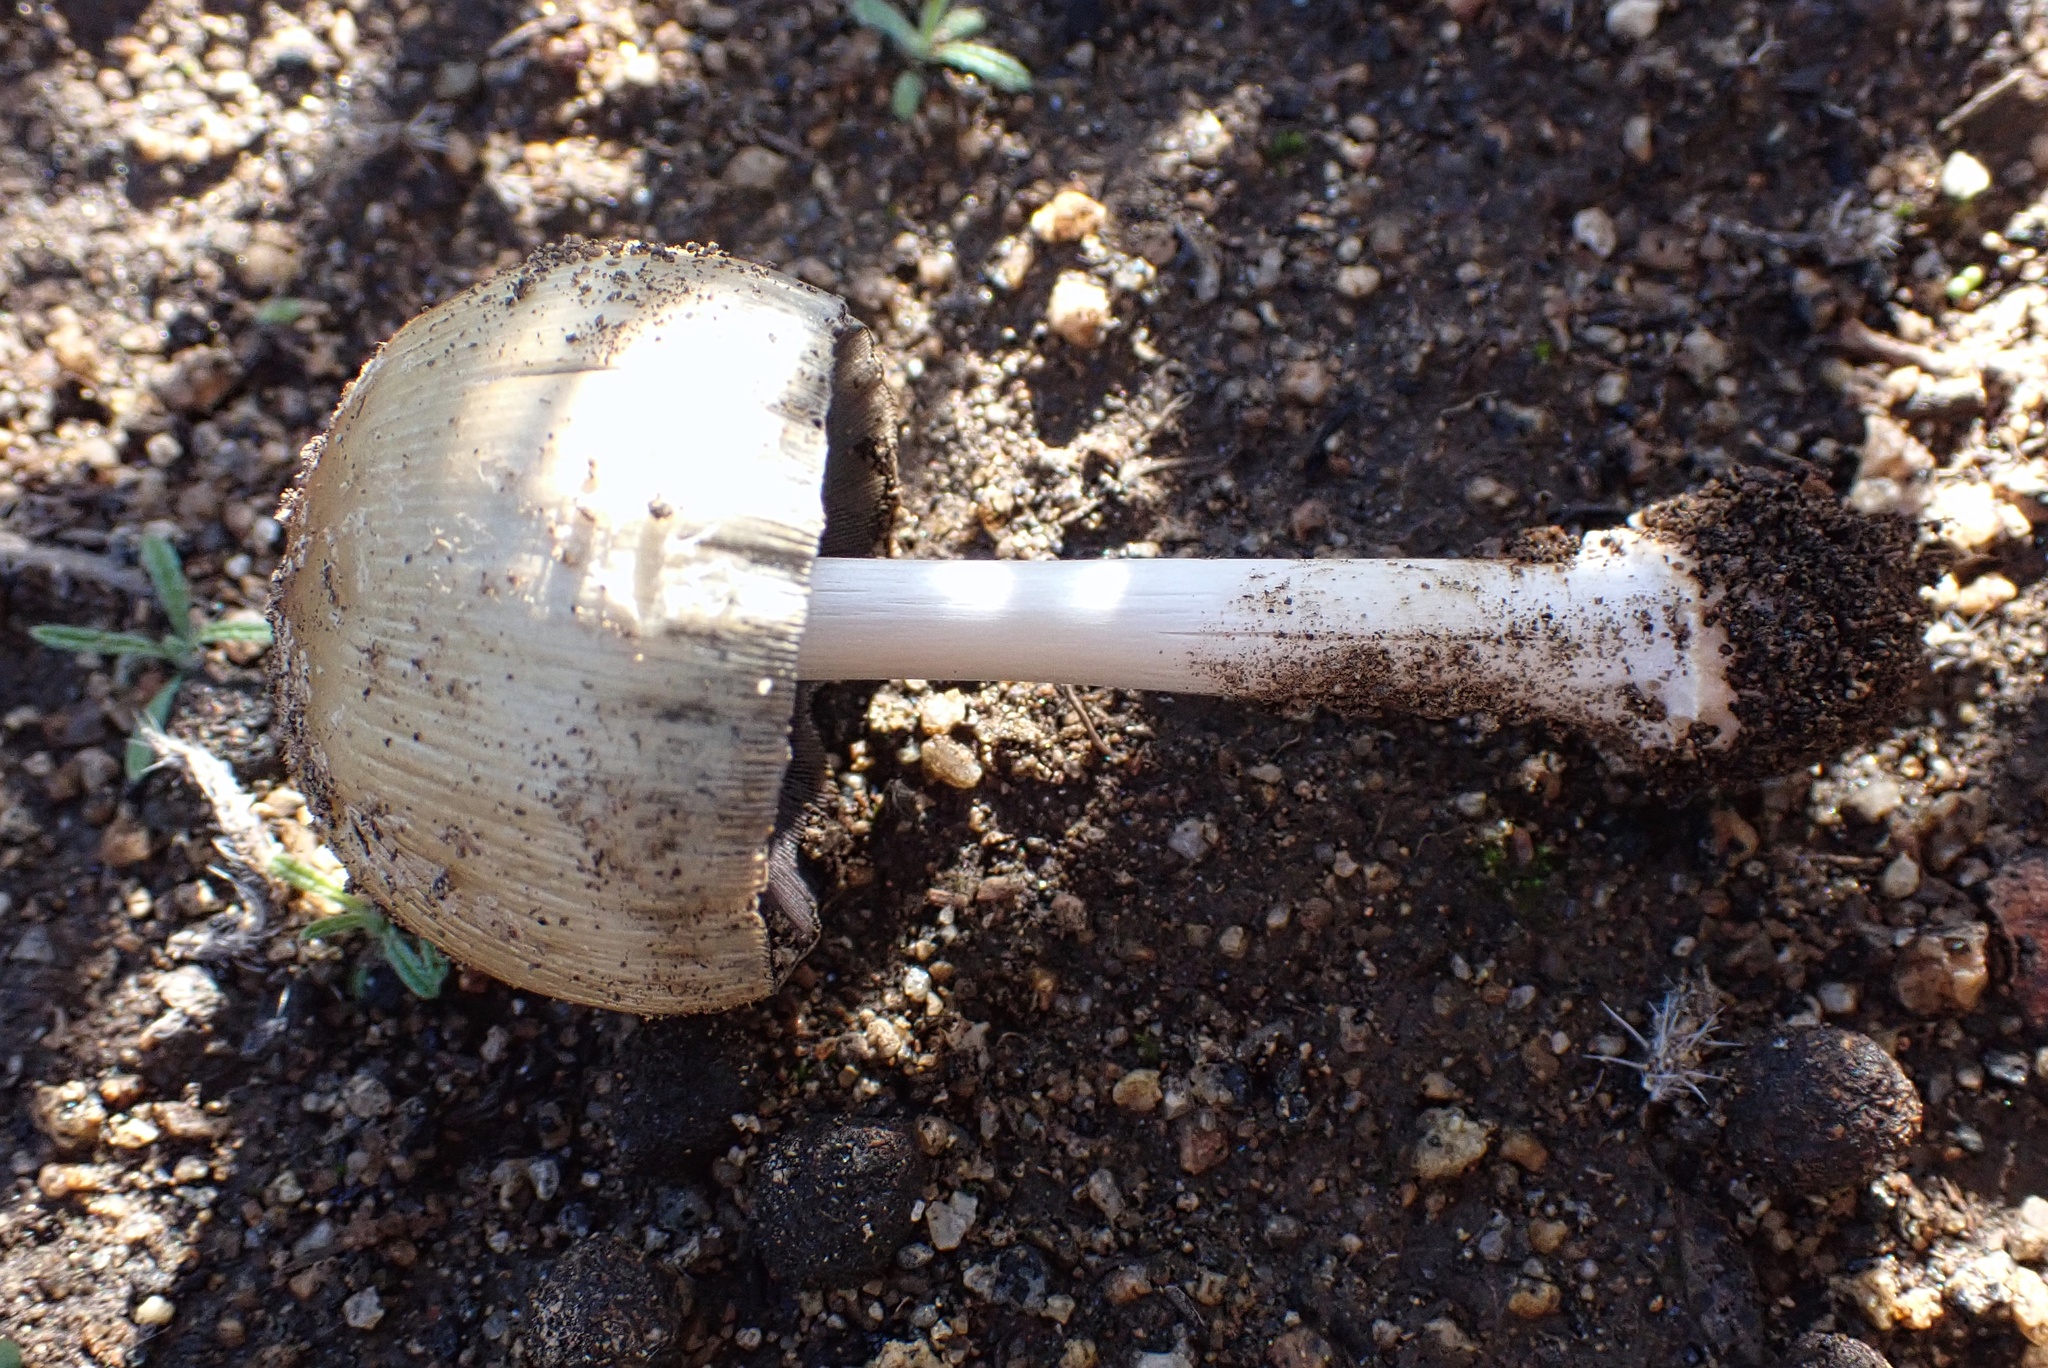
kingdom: Fungi
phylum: Basidiomycota
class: Agaricomycetes
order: Agaricales
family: Psathyrellaceae
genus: Coprinellus
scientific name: Coprinellus bipellis
